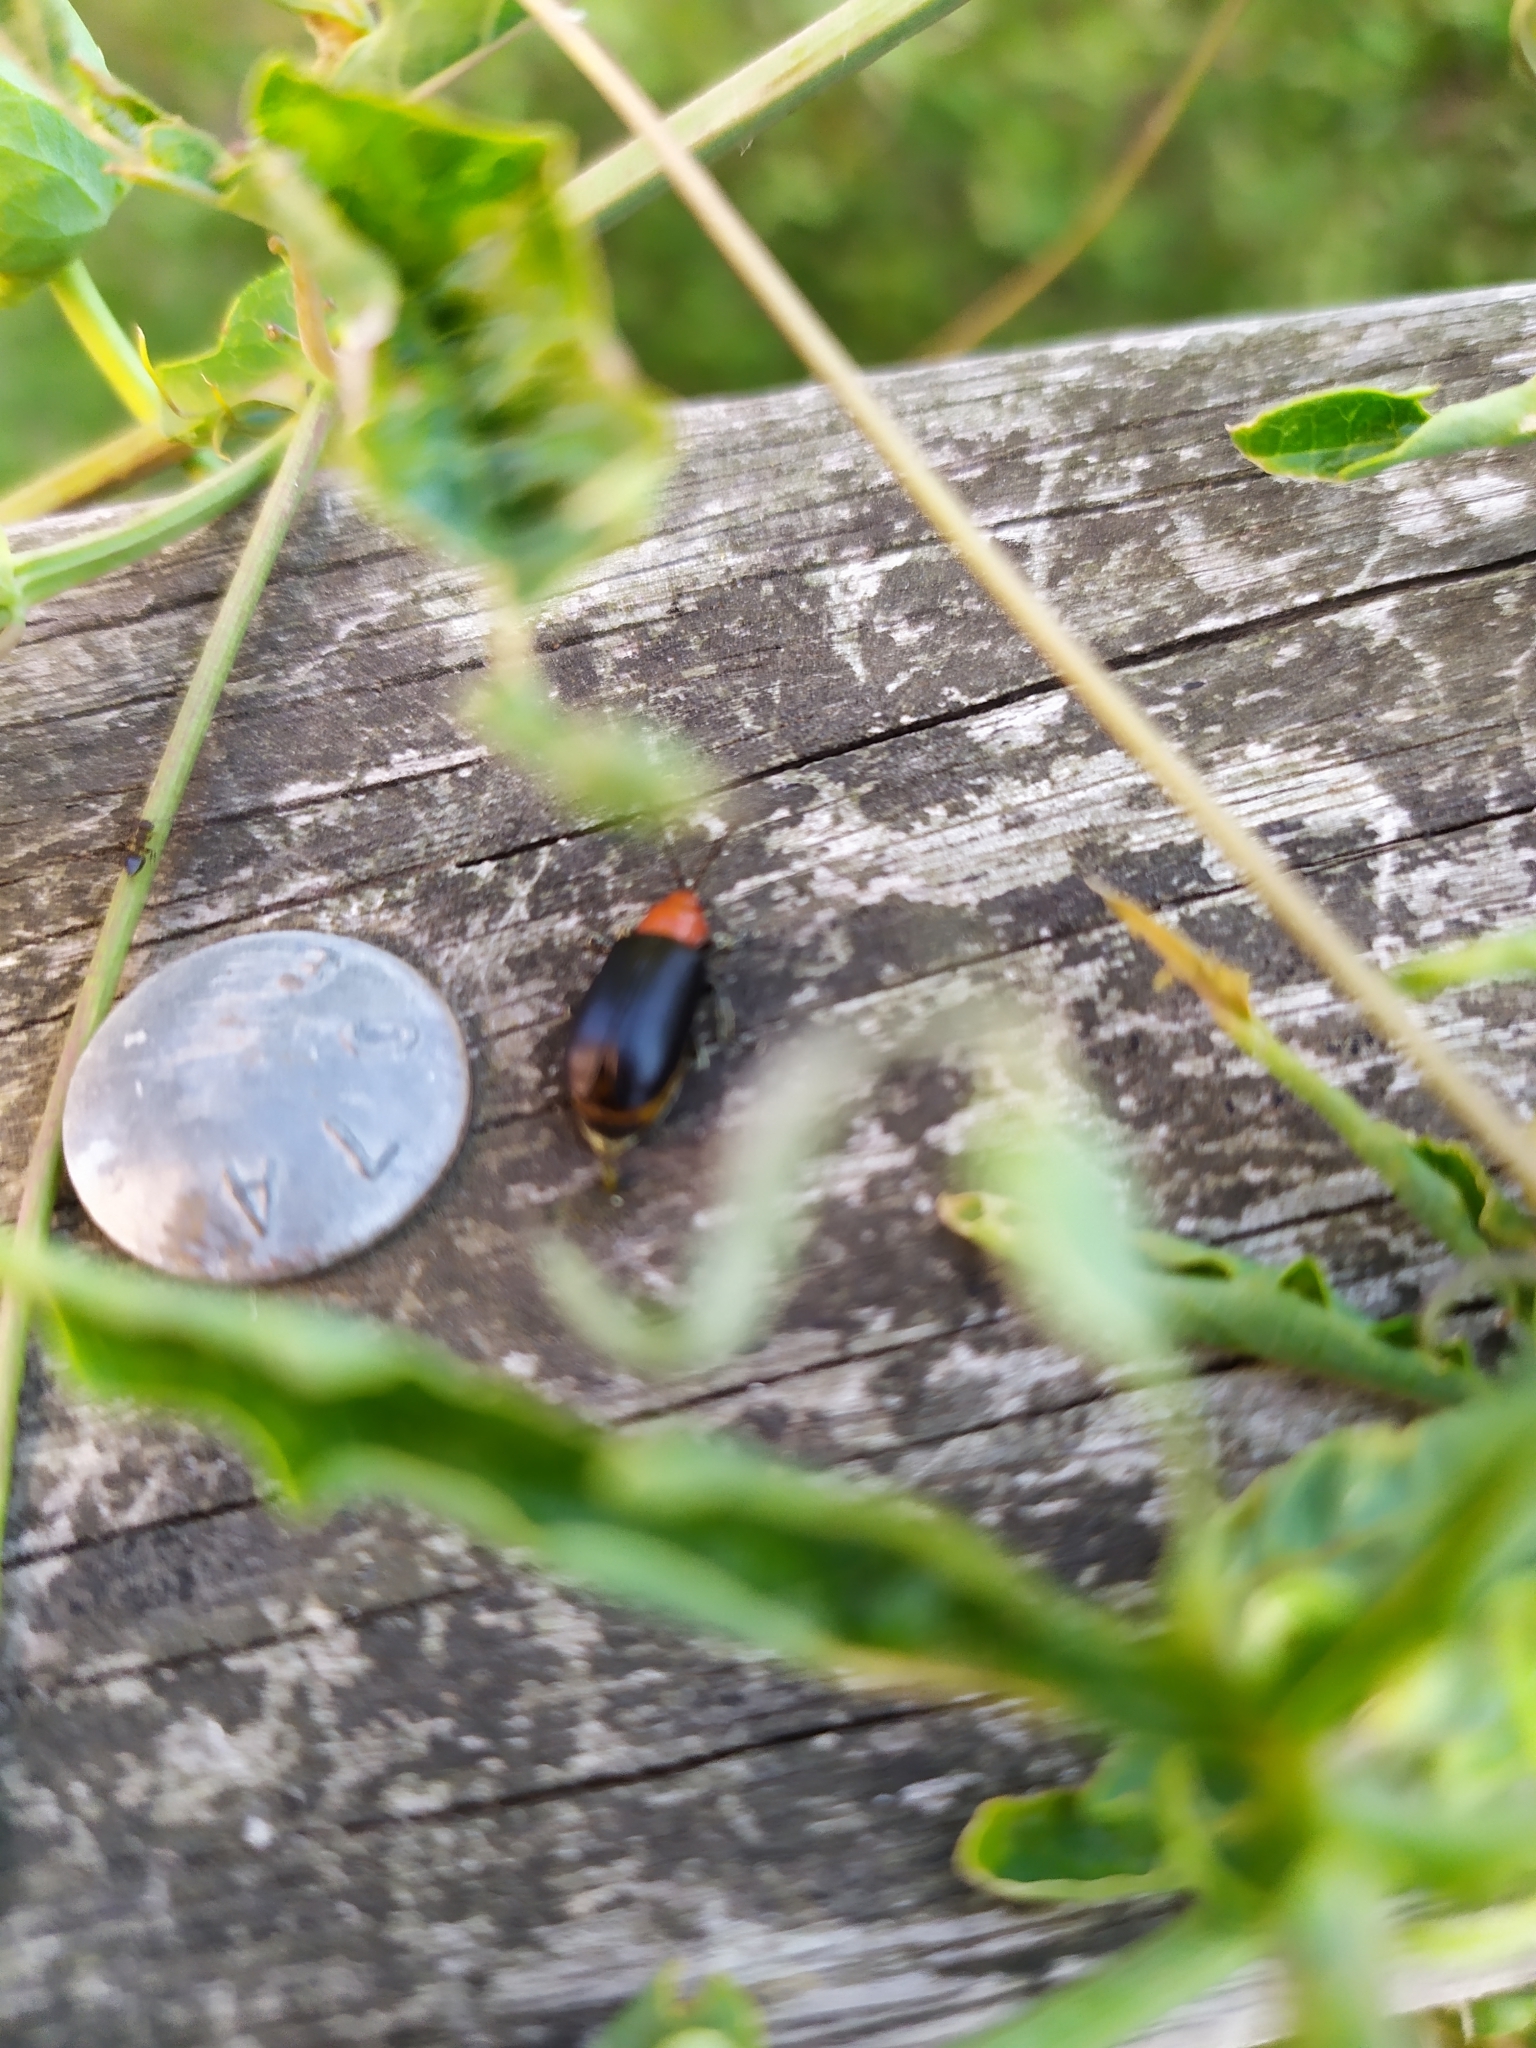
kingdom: Animalia
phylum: Arthropoda
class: Insecta
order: Coleoptera
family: Chrysomelidae
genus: Cacoscelis
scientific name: Cacoscelis
